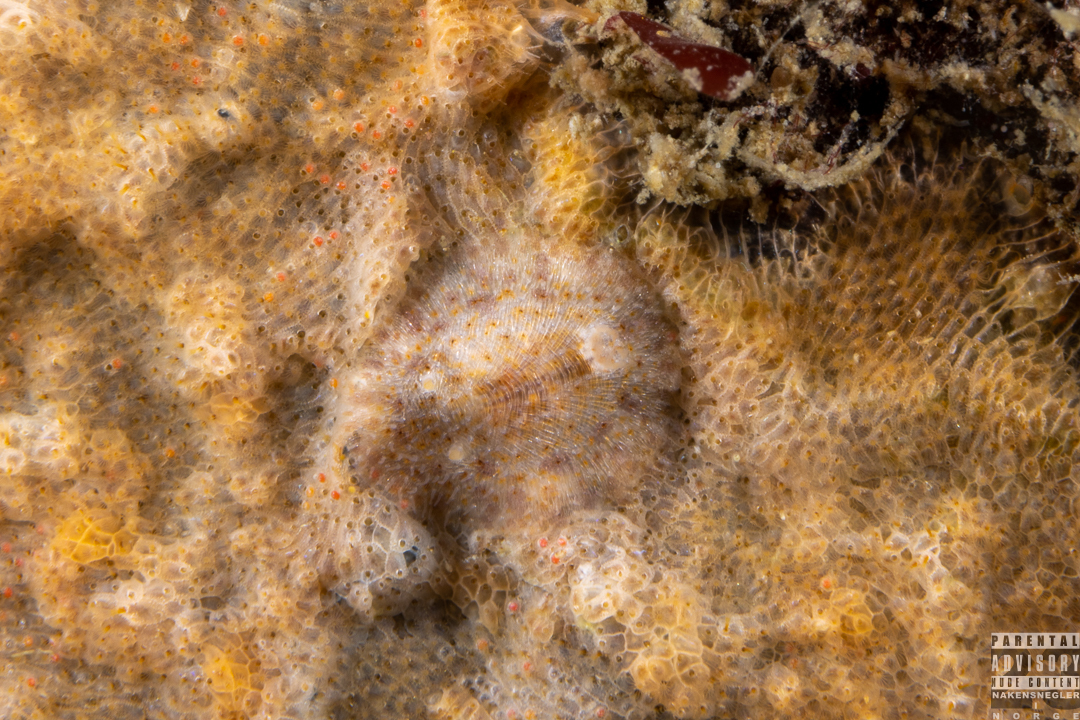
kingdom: Animalia
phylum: Mollusca
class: Gastropoda
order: Nudibranchia
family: Onchidorididae
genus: Idaliadoris
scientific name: Idaliadoris depressa
